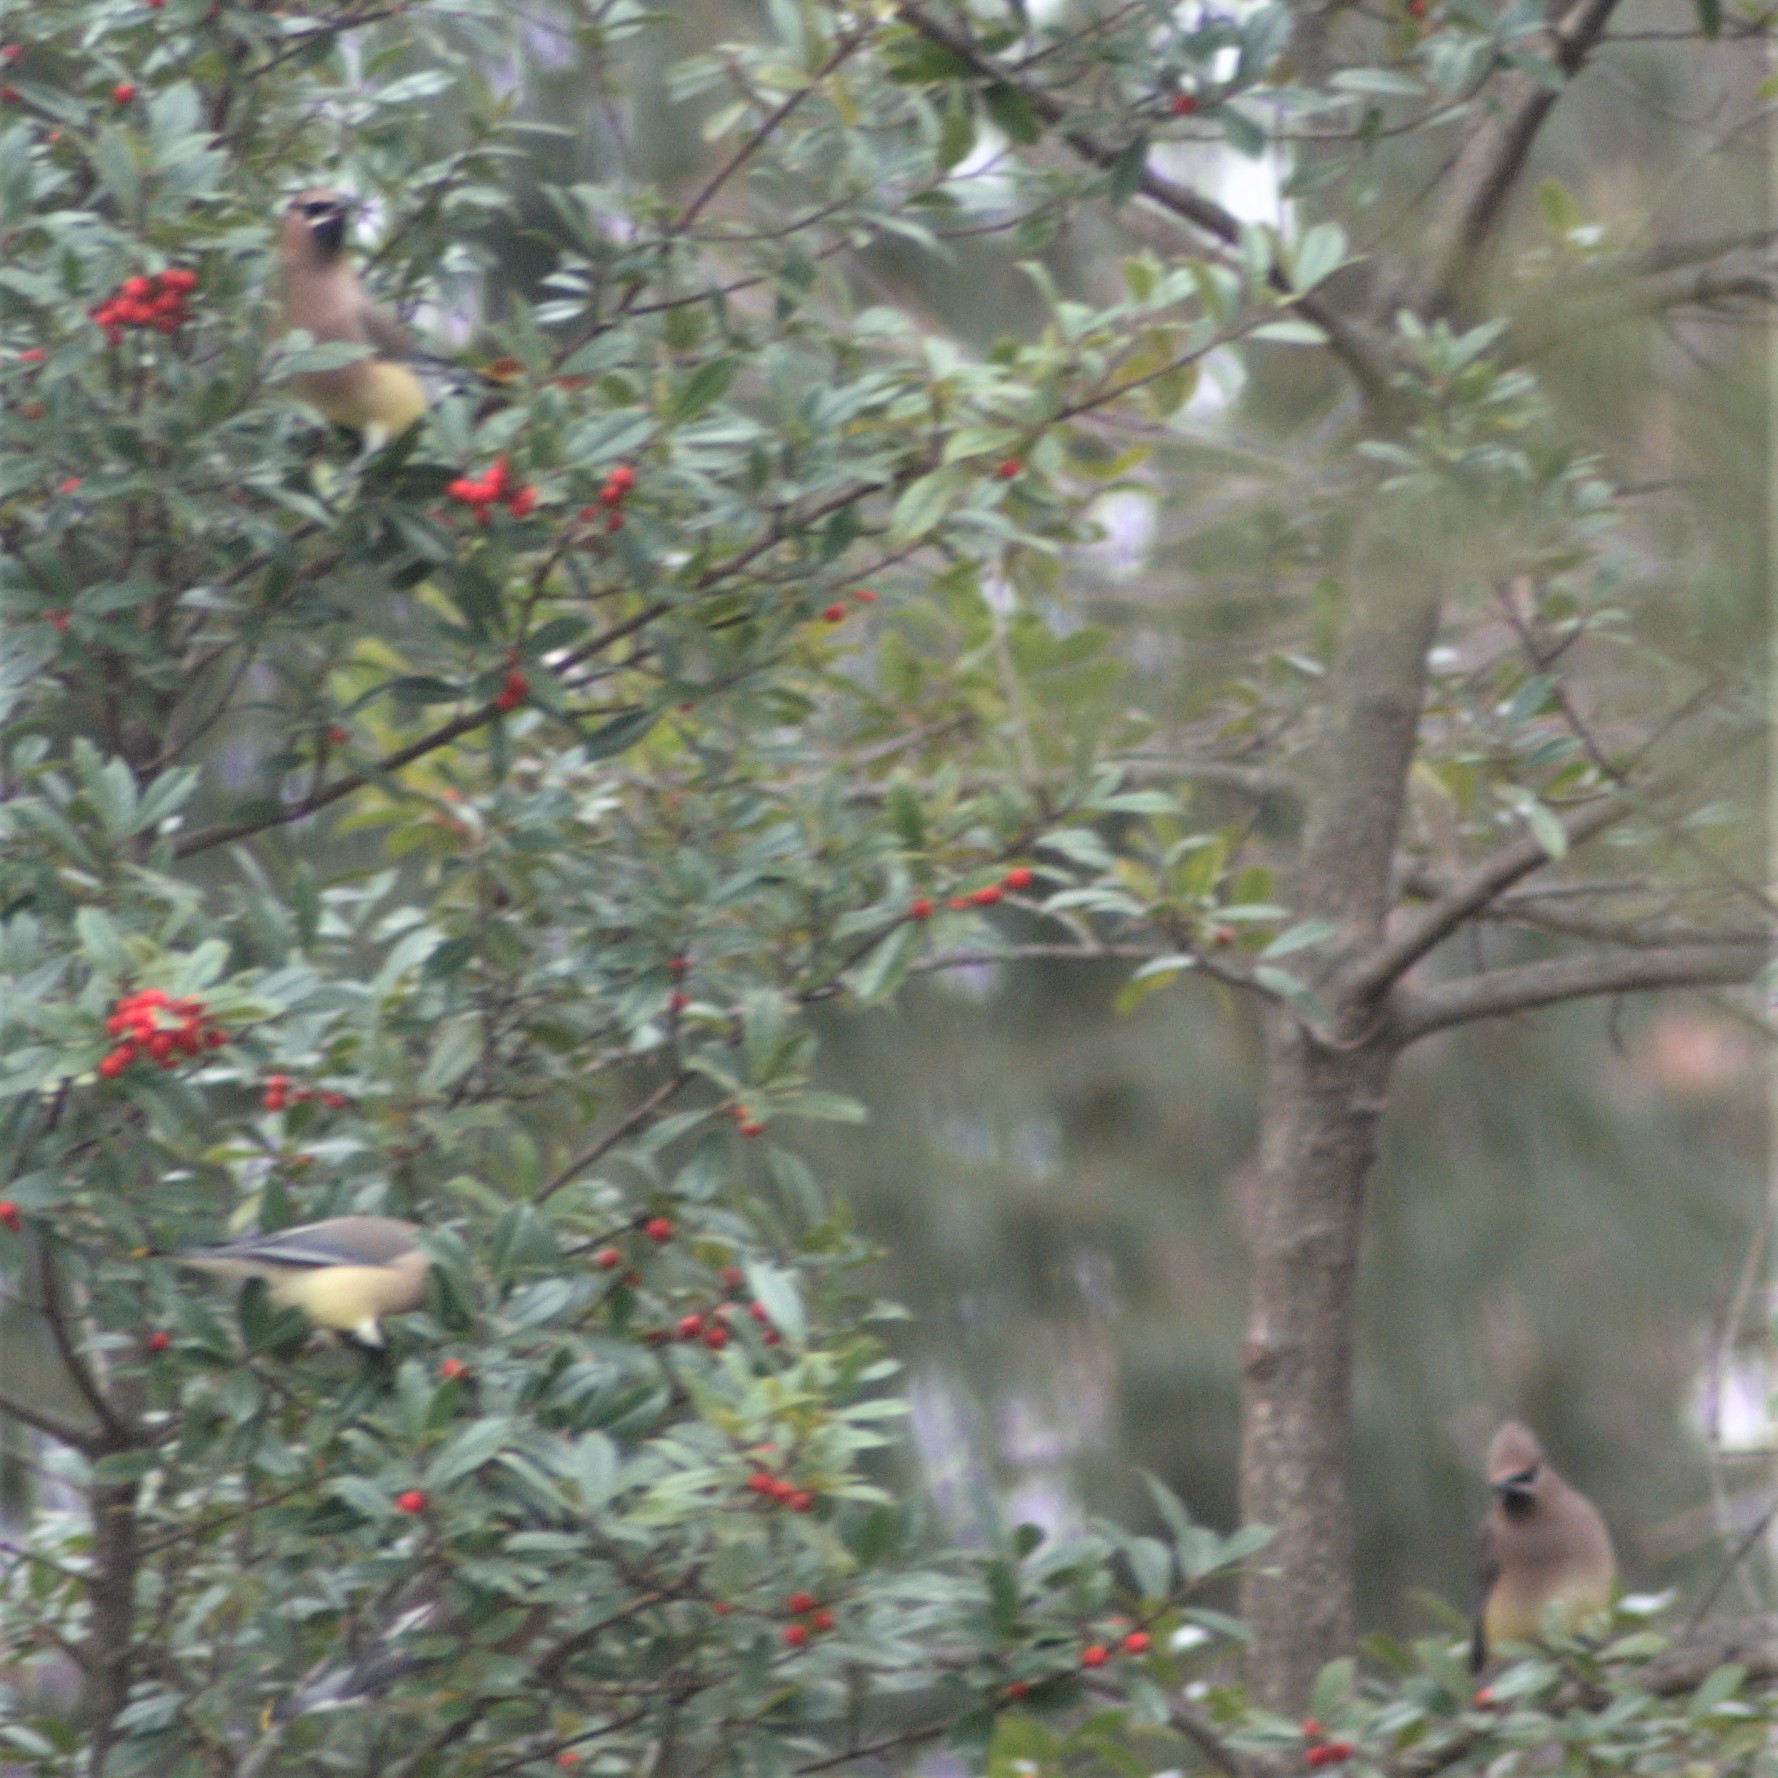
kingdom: Animalia
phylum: Chordata
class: Aves
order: Passeriformes
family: Bombycillidae
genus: Bombycilla
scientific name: Bombycilla cedrorum
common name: Cedar waxwing
